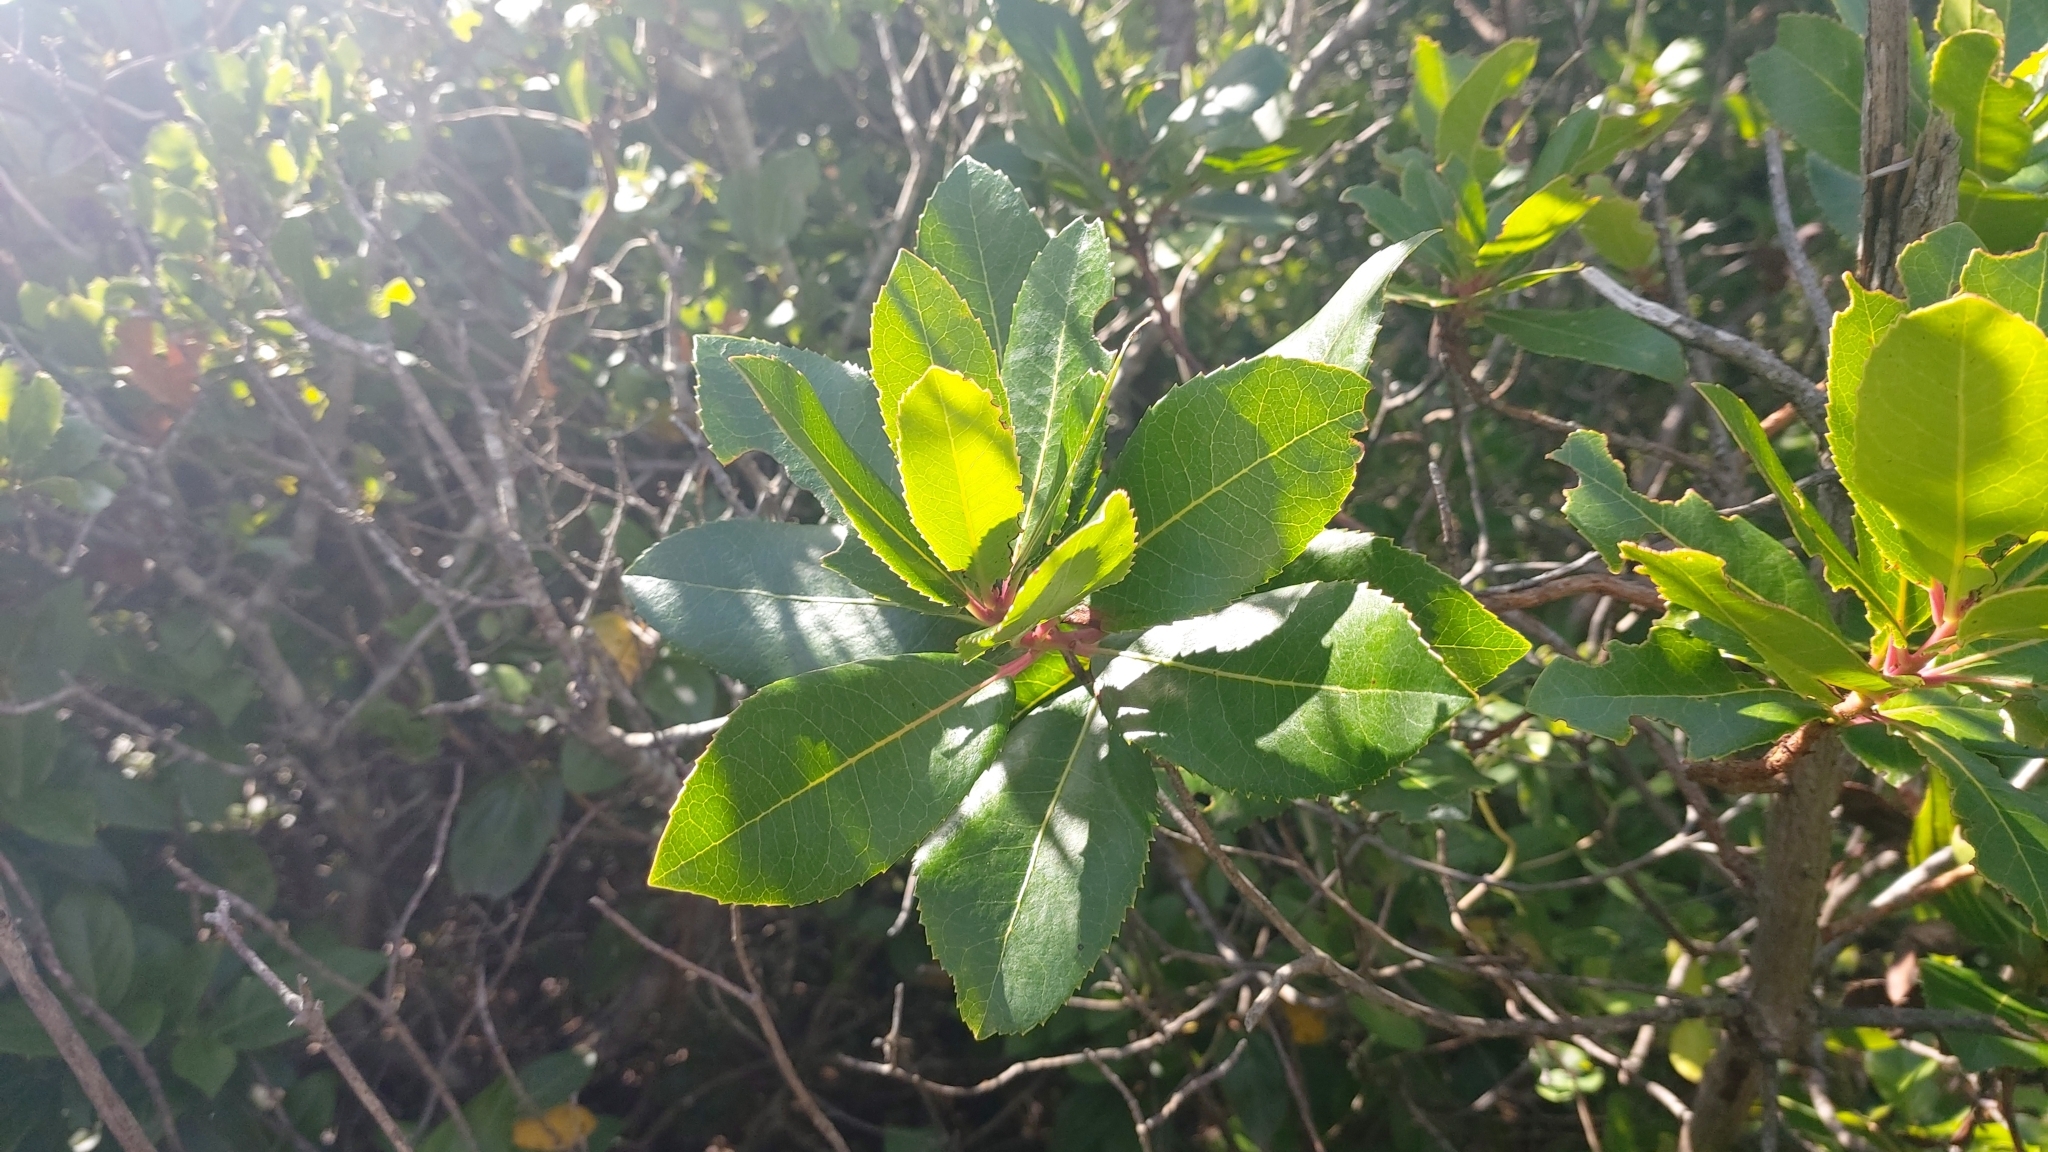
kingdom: Plantae
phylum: Tracheophyta
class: Magnoliopsida
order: Ericales
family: Ericaceae
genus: Arbutus
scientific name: Arbutus unedo
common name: Strawberry-tree
